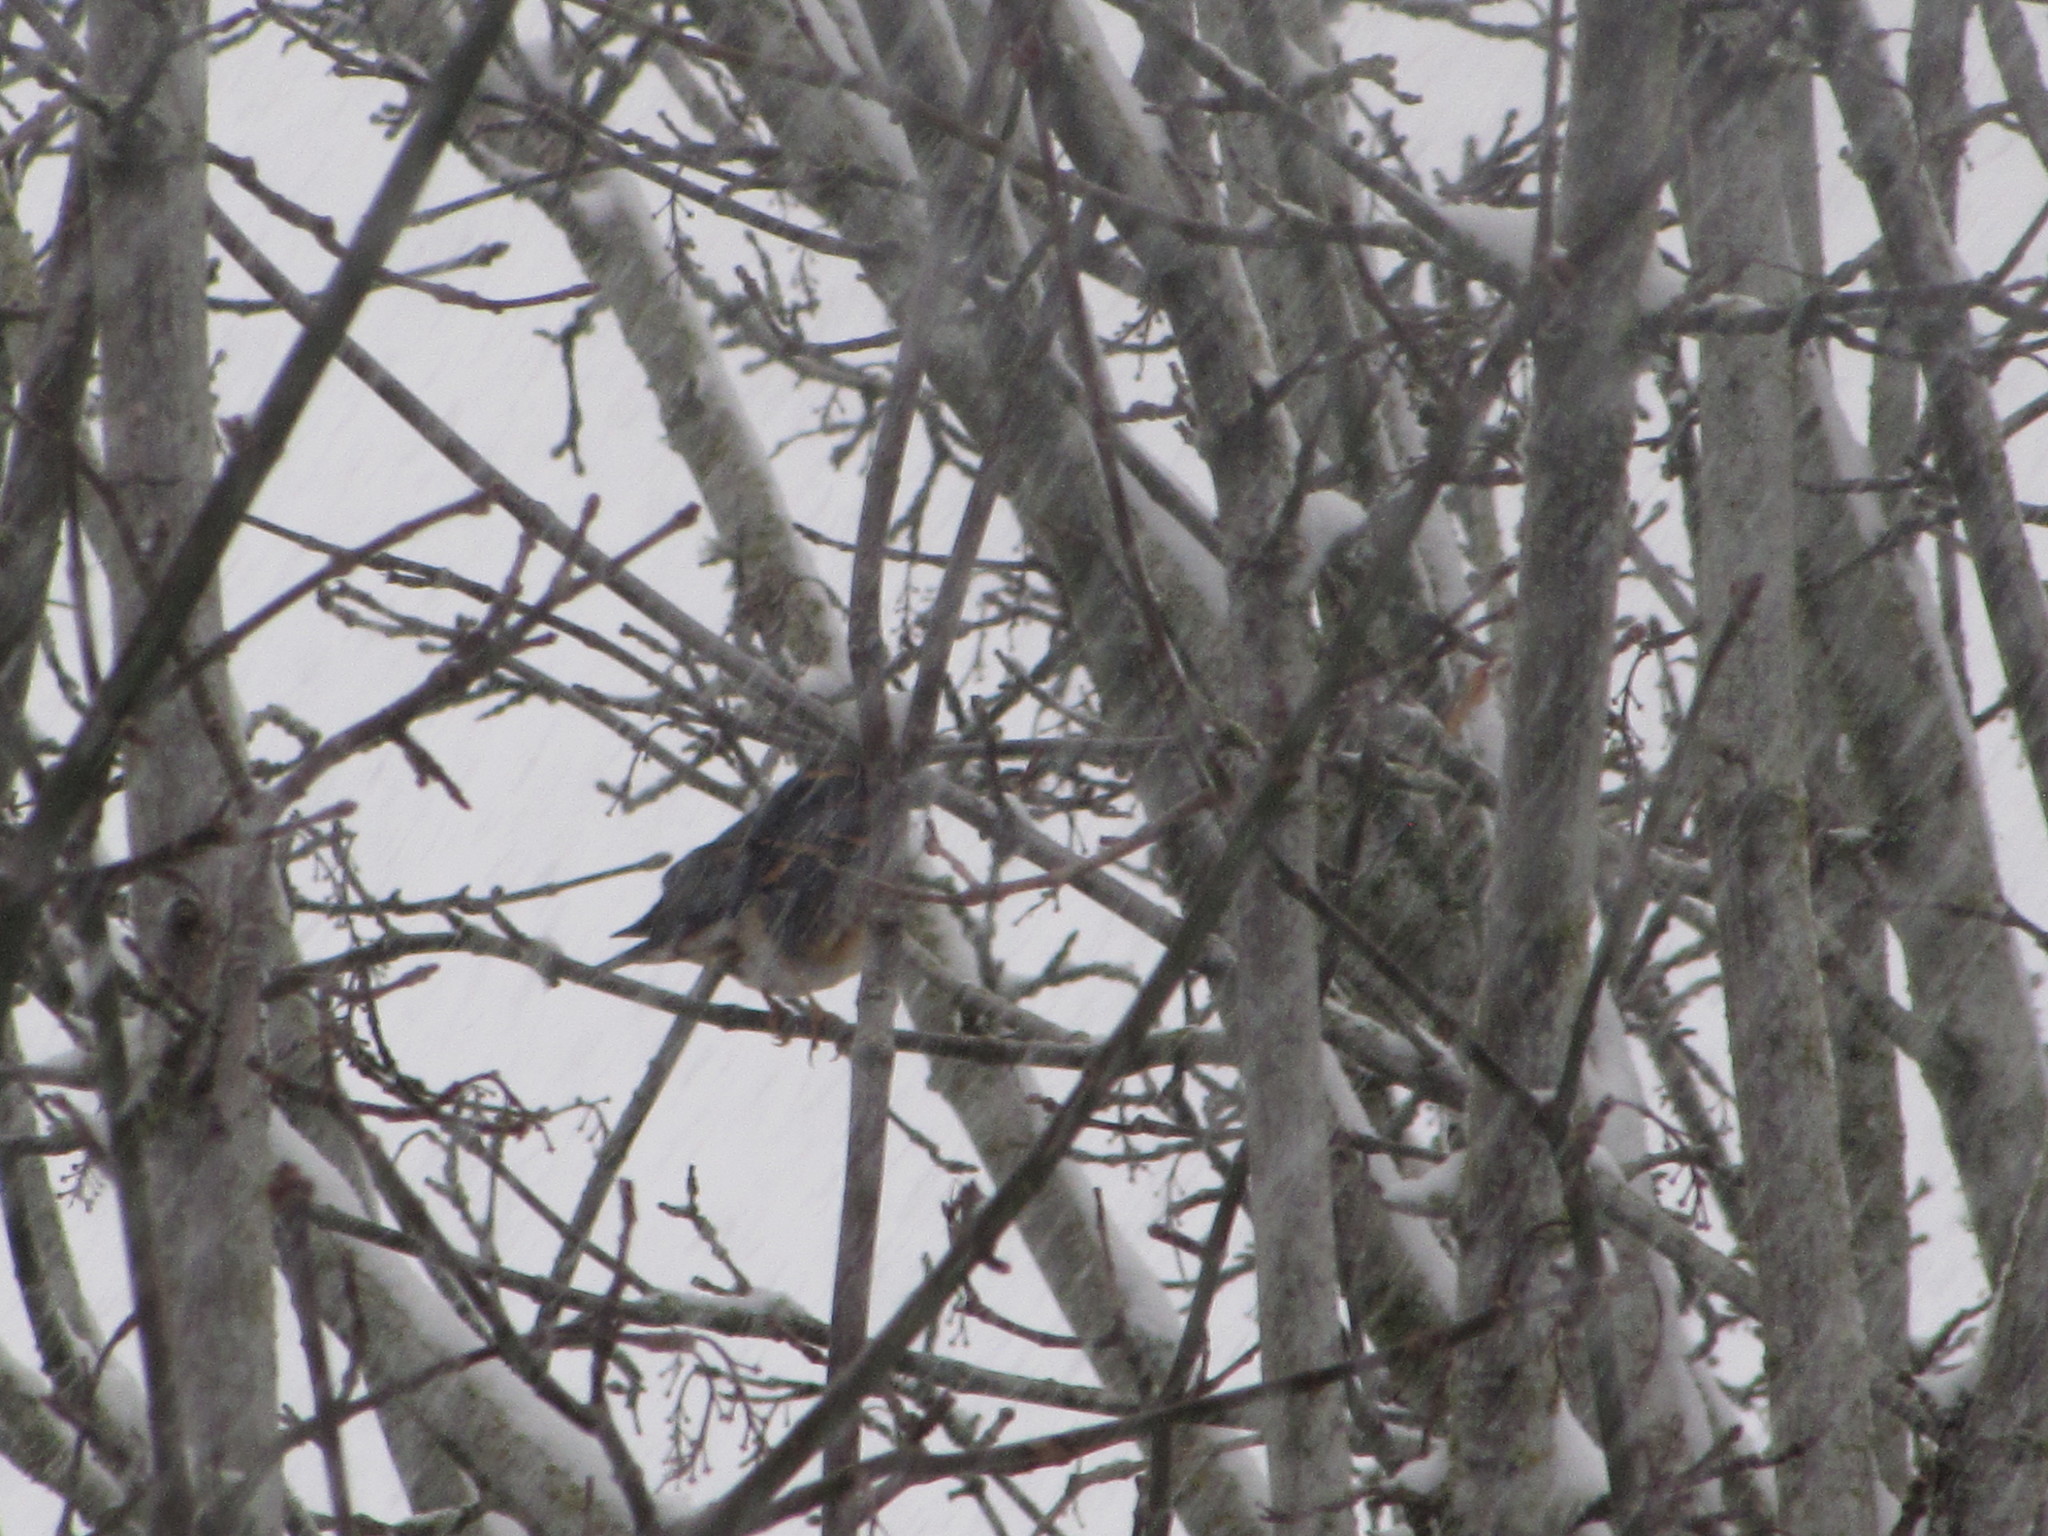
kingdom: Animalia
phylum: Chordata
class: Aves
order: Passeriformes
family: Turdidae
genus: Ixoreus
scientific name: Ixoreus naevius
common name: Varied thrush
